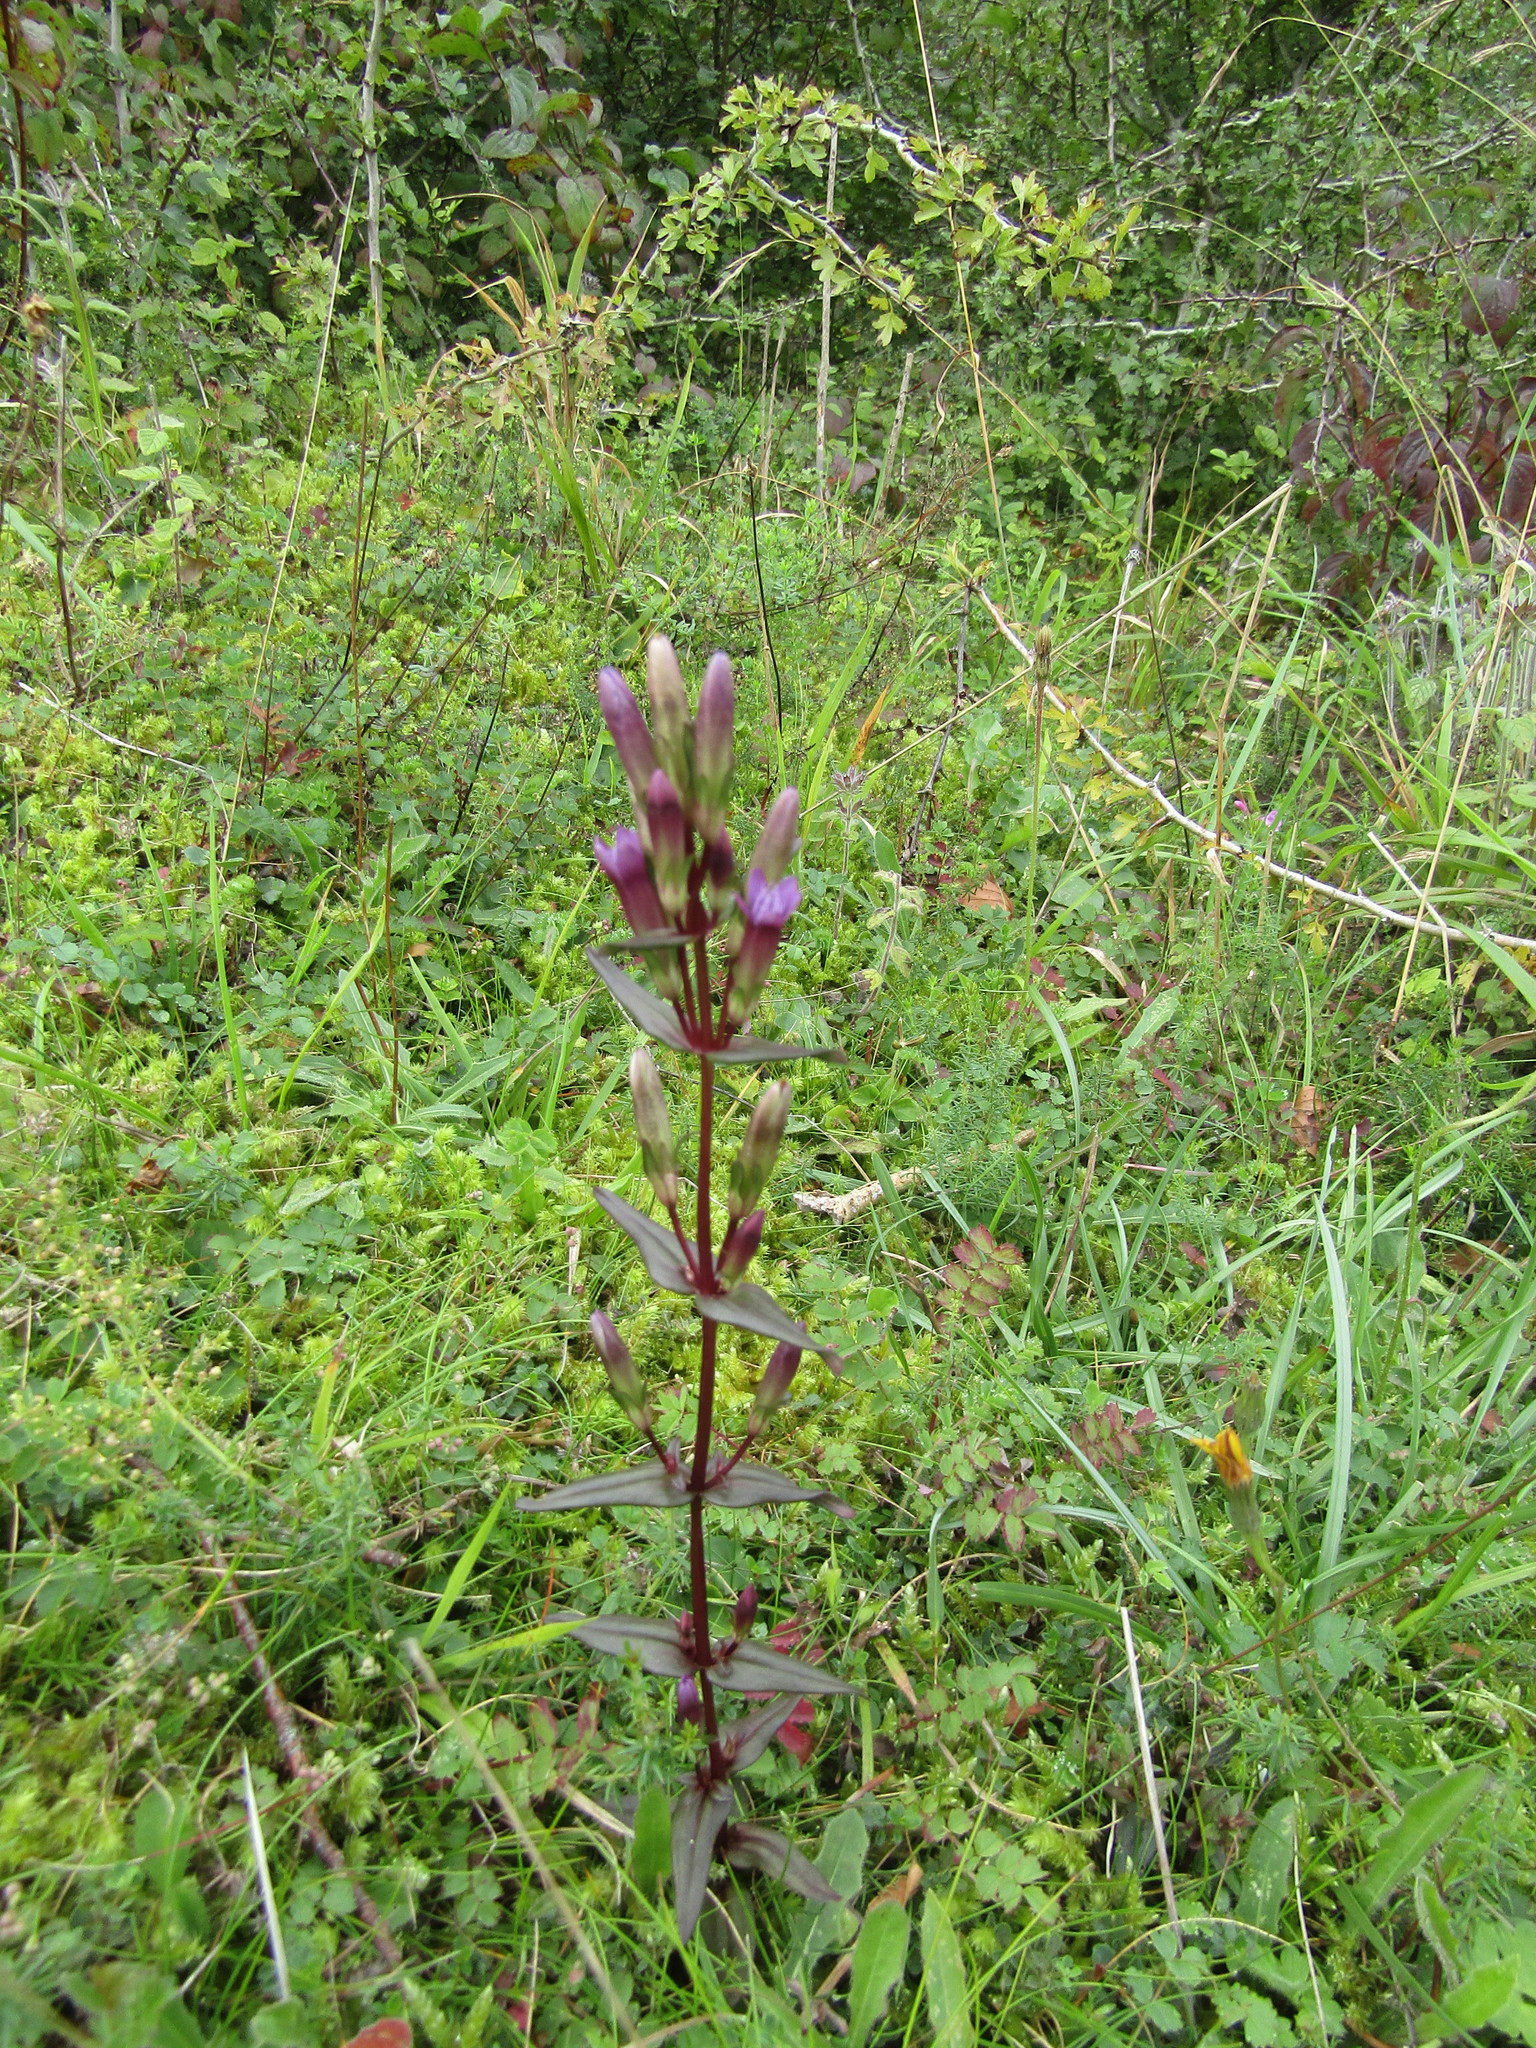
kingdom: Plantae
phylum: Tracheophyta
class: Magnoliopsida
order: Gentianales
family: Gentianaceae
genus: Gentianella
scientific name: Gentianella amarella
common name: Autumn gentian
